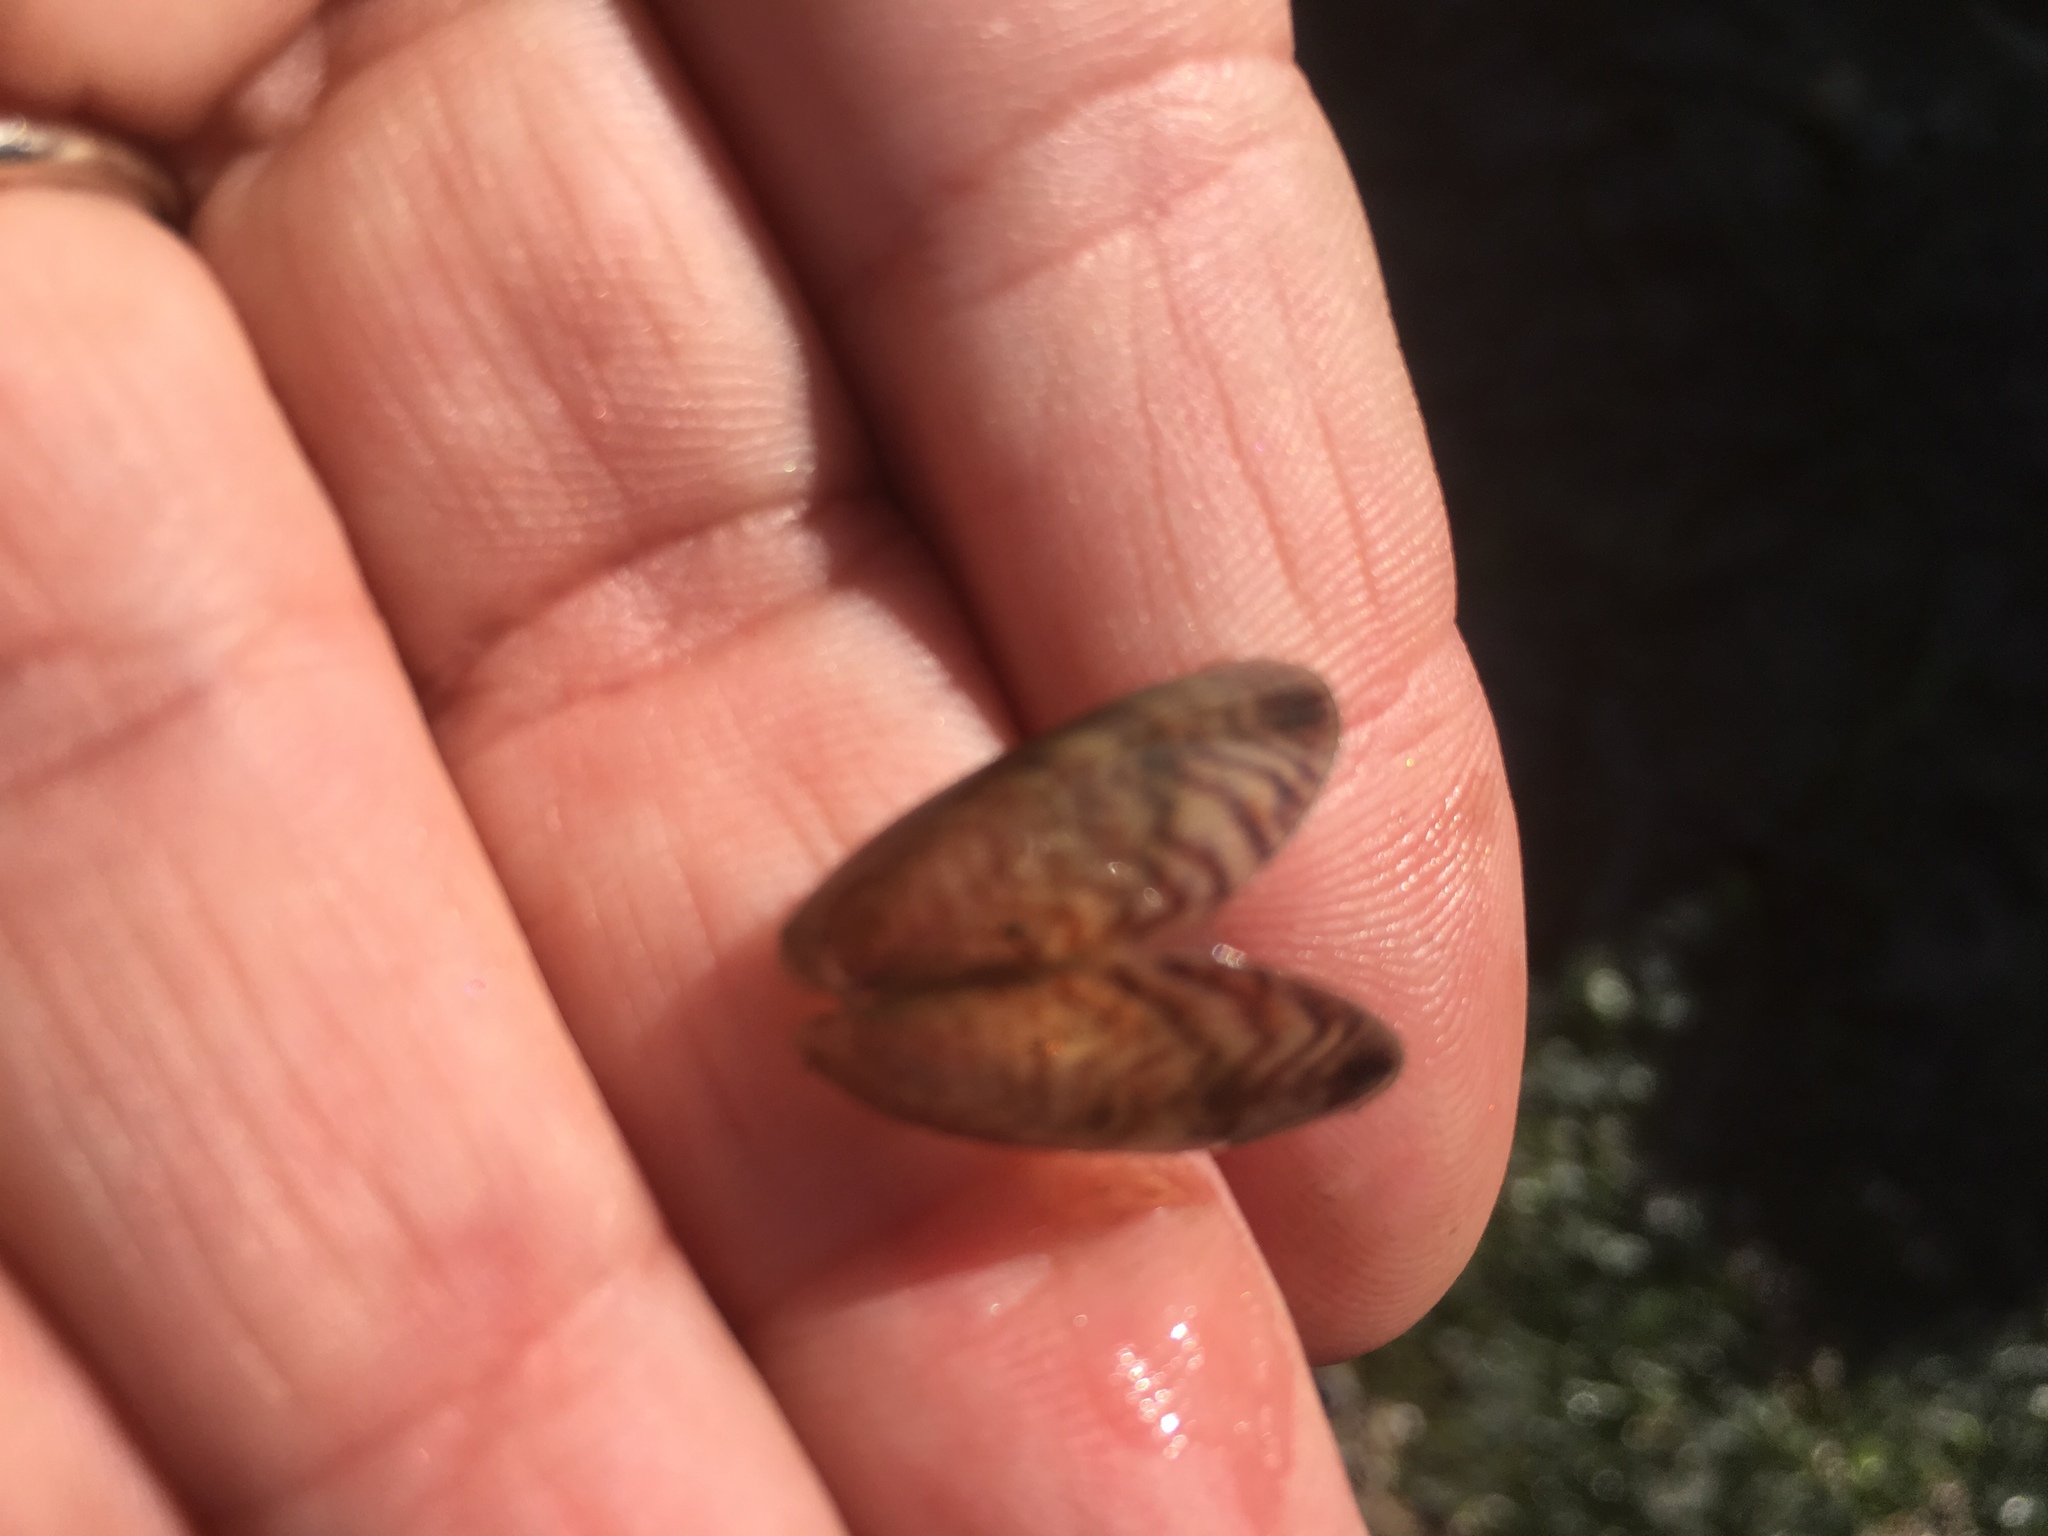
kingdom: Animalia
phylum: Mollusca
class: Bivalvia
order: Mytilida
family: Mytilidae
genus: Arcuatula
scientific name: Arcuatula senhousia
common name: Asian mussel
